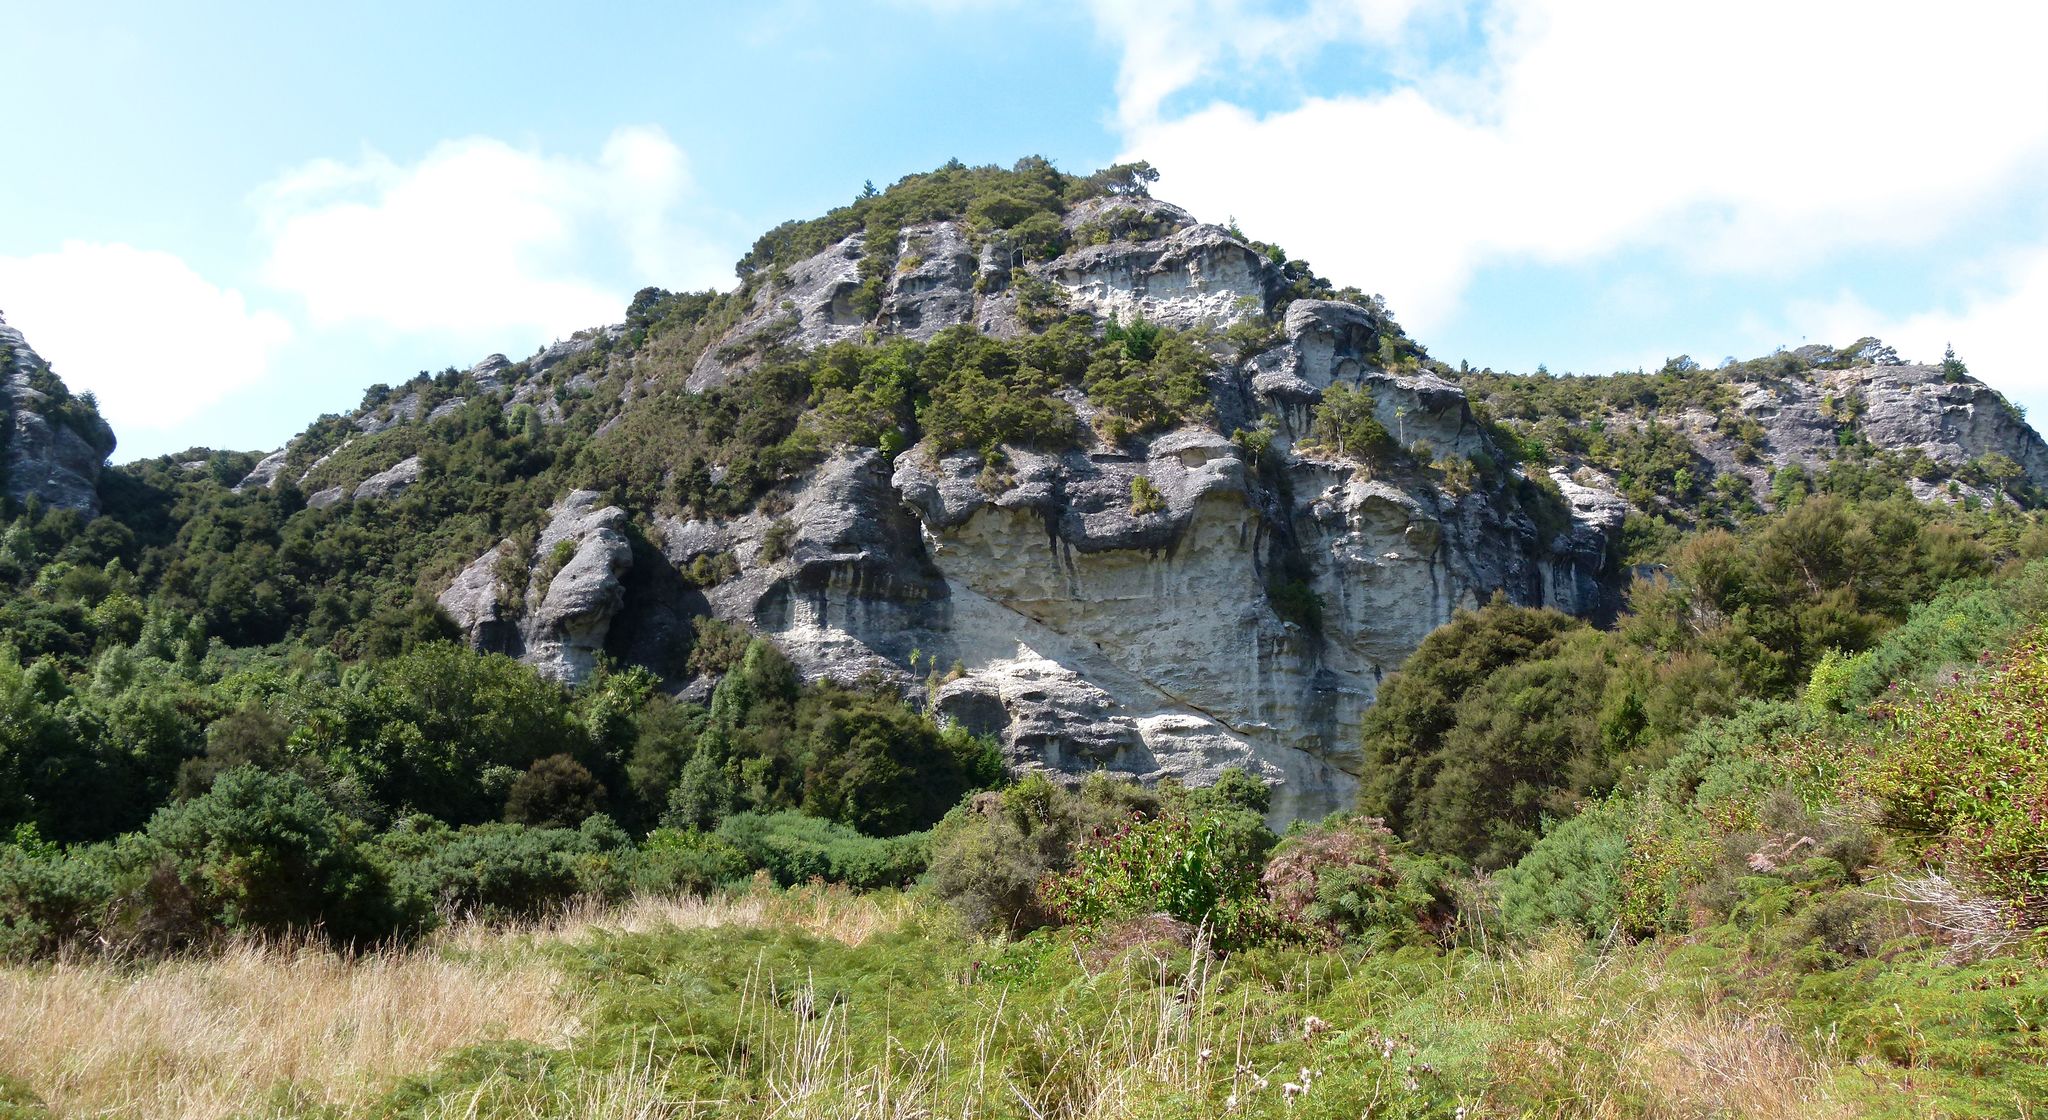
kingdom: Plantae
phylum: Tracheophyta
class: Liliopsida
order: Asparagales
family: Asparagaceae
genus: Cordyline
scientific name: Cordyline australis
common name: Cabbage-palm
